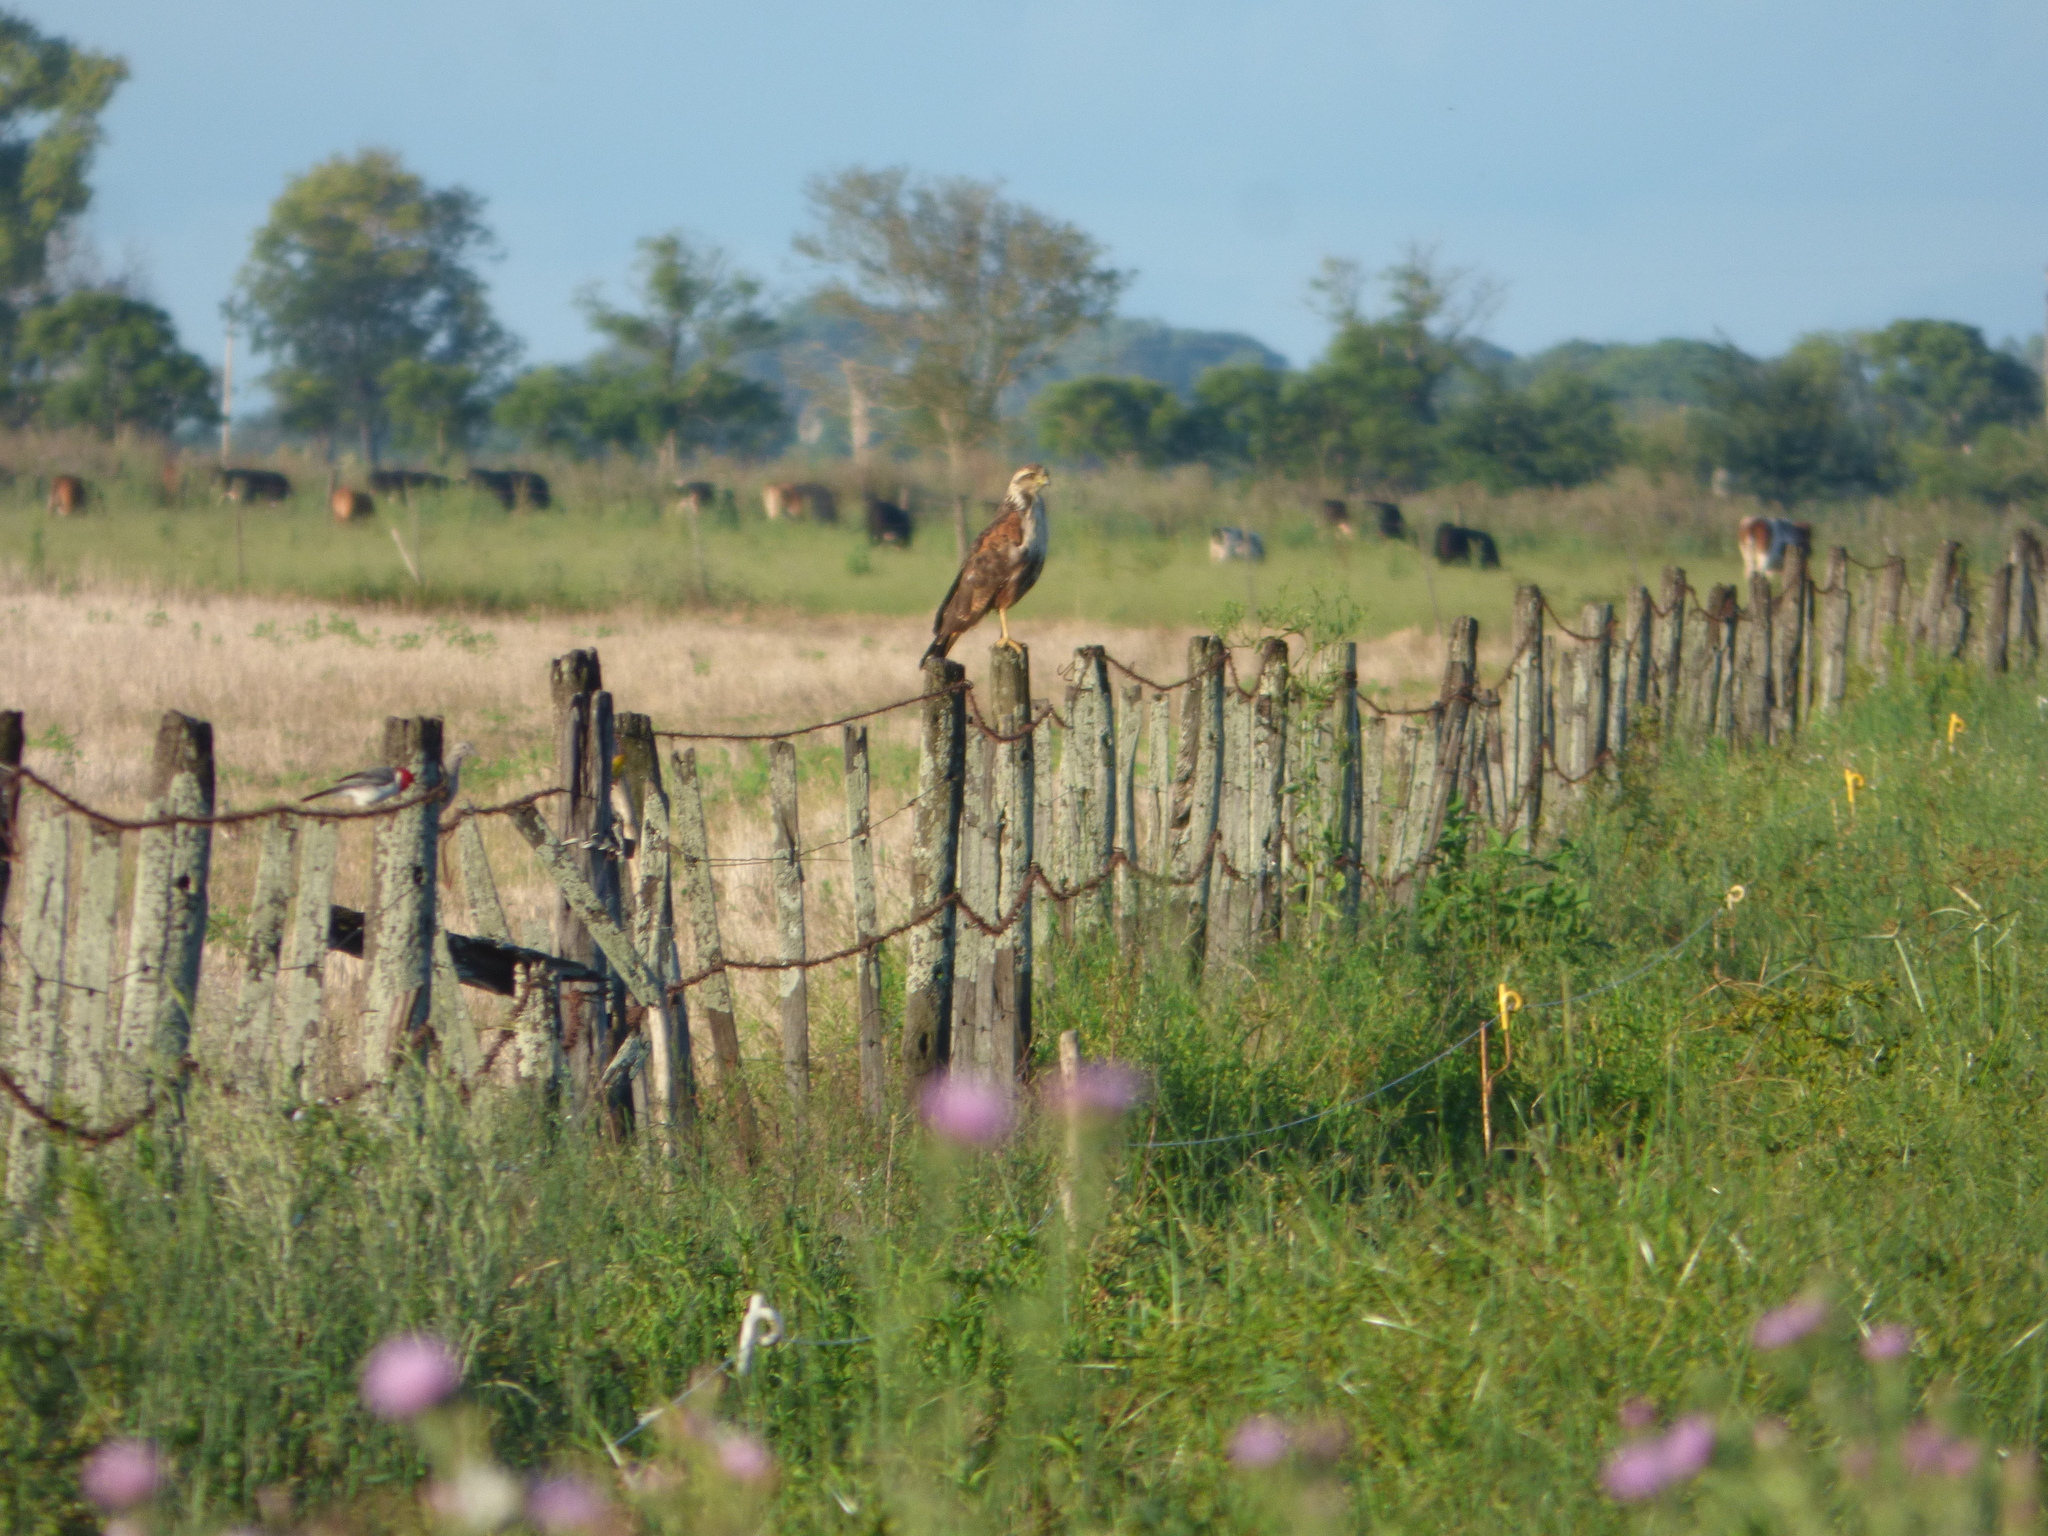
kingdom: Animalia
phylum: Chordata
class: Aves
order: Accipitriformes
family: Accipitridae
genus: Buteogallus
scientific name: Buteogallus meridionalis
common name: Savanna hawk
